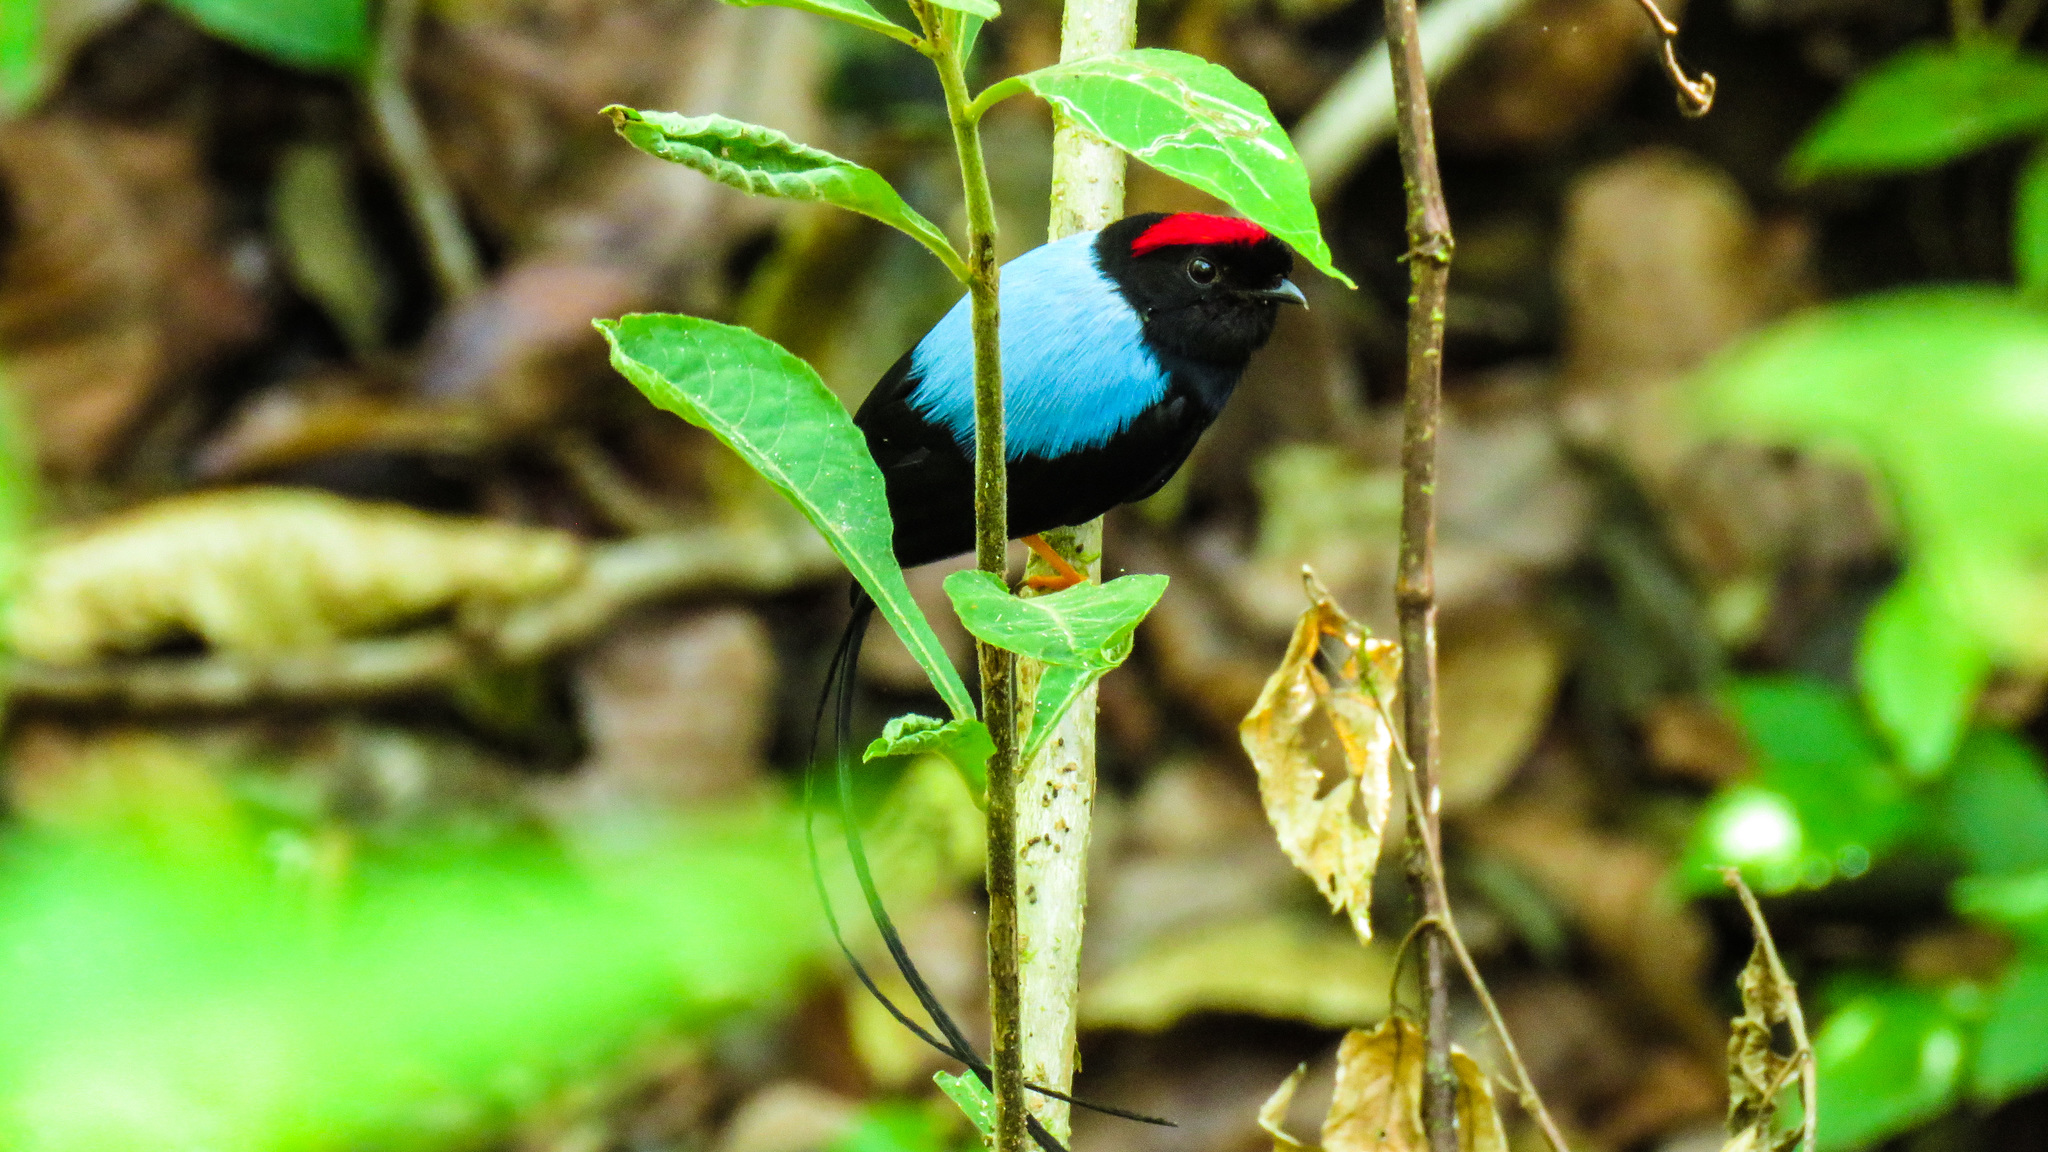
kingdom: Animalia
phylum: Chordata
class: Aves
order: Passeriformes
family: Pipridae
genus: Chiroxiphia
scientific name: Chiroxiphia linearis
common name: Long-tailed manakin
